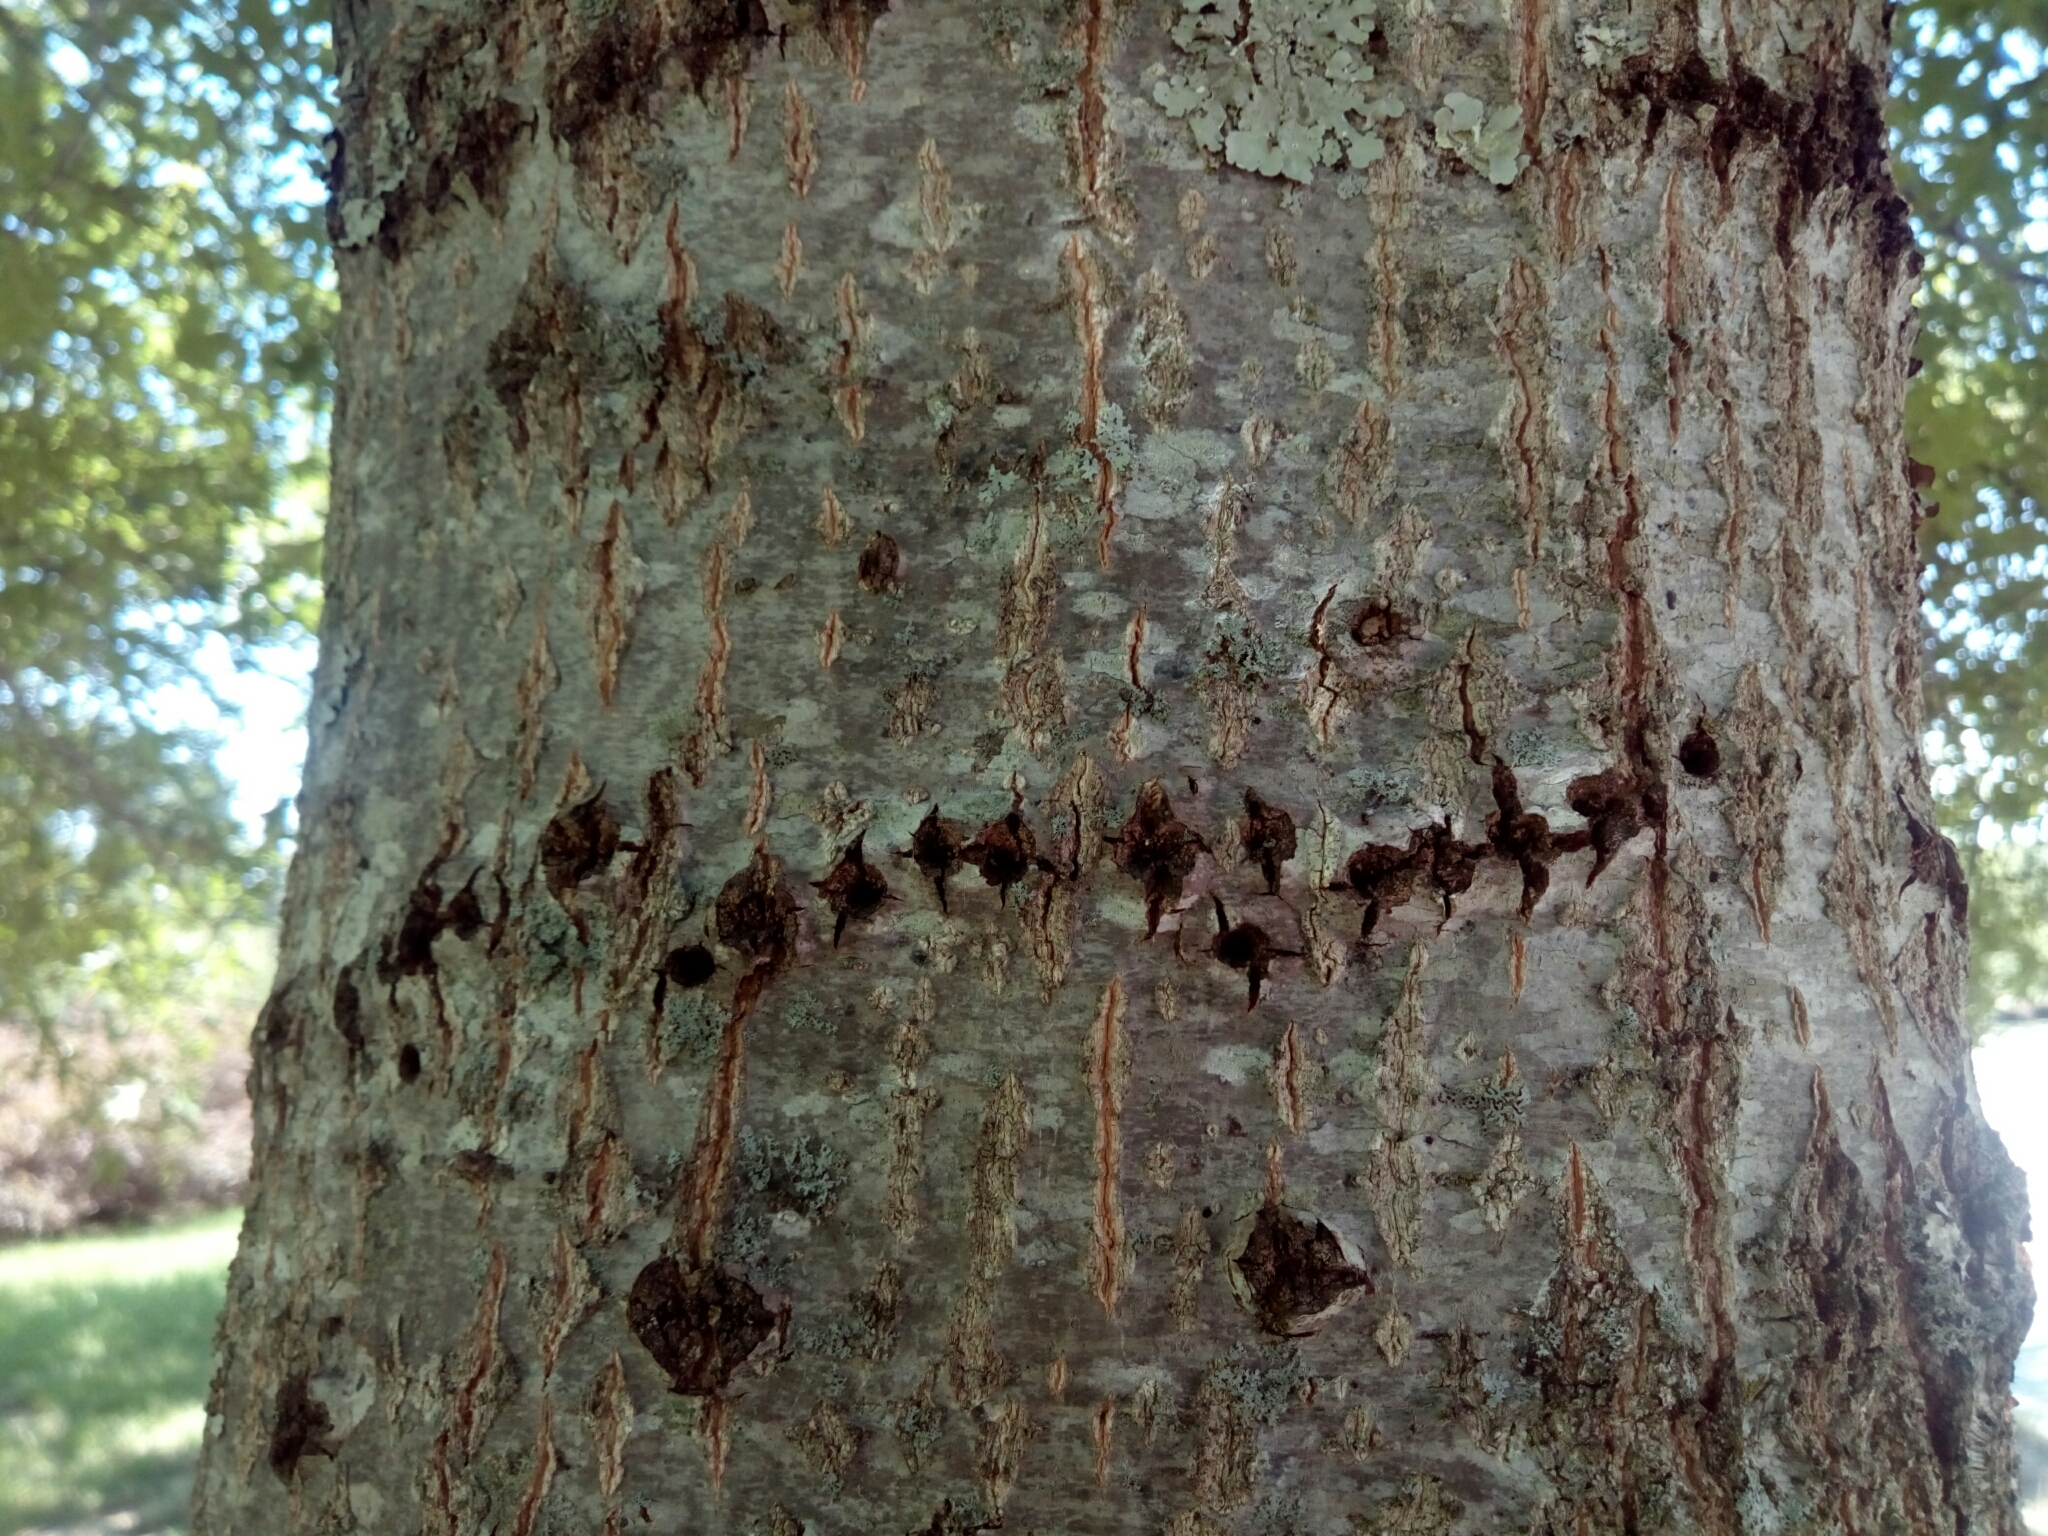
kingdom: Animalia
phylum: Chordata
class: Aves
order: Piciformes
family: Picidae
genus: Sphyrapicus
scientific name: Sphyrapicus varius
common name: Yellow-bellied sapsucker
